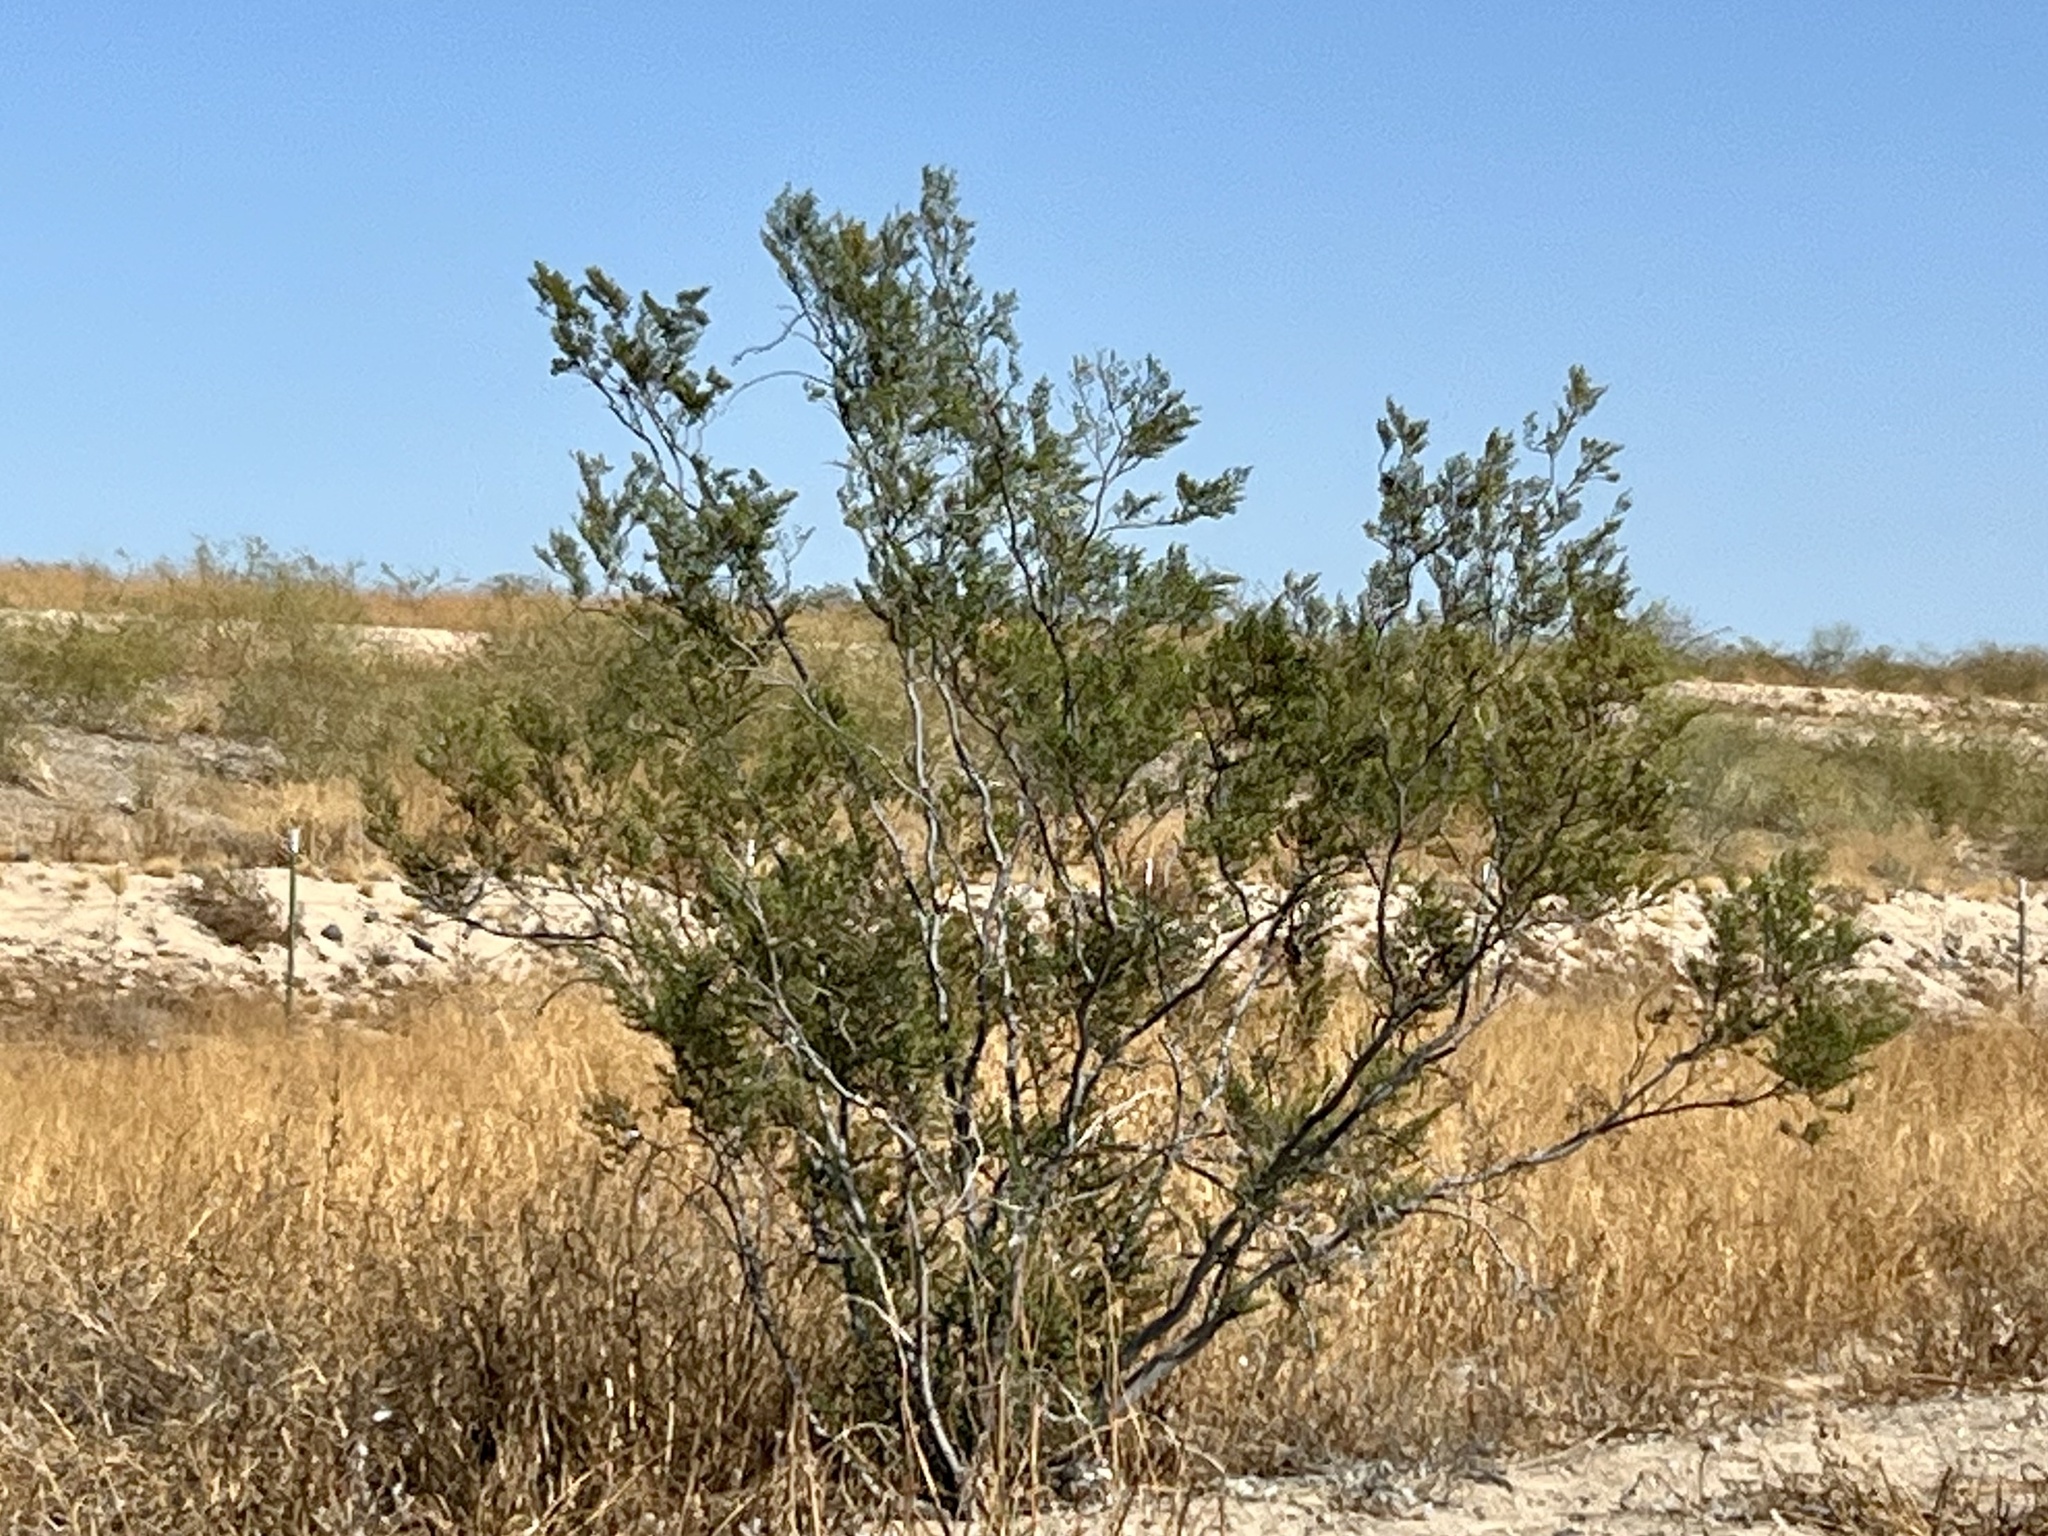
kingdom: Plantae
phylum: Tracheophyta
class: Magnoliopsida
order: Zygophyllales
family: Zygophyllaceae
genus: Larrea
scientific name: Larrea tridentata
